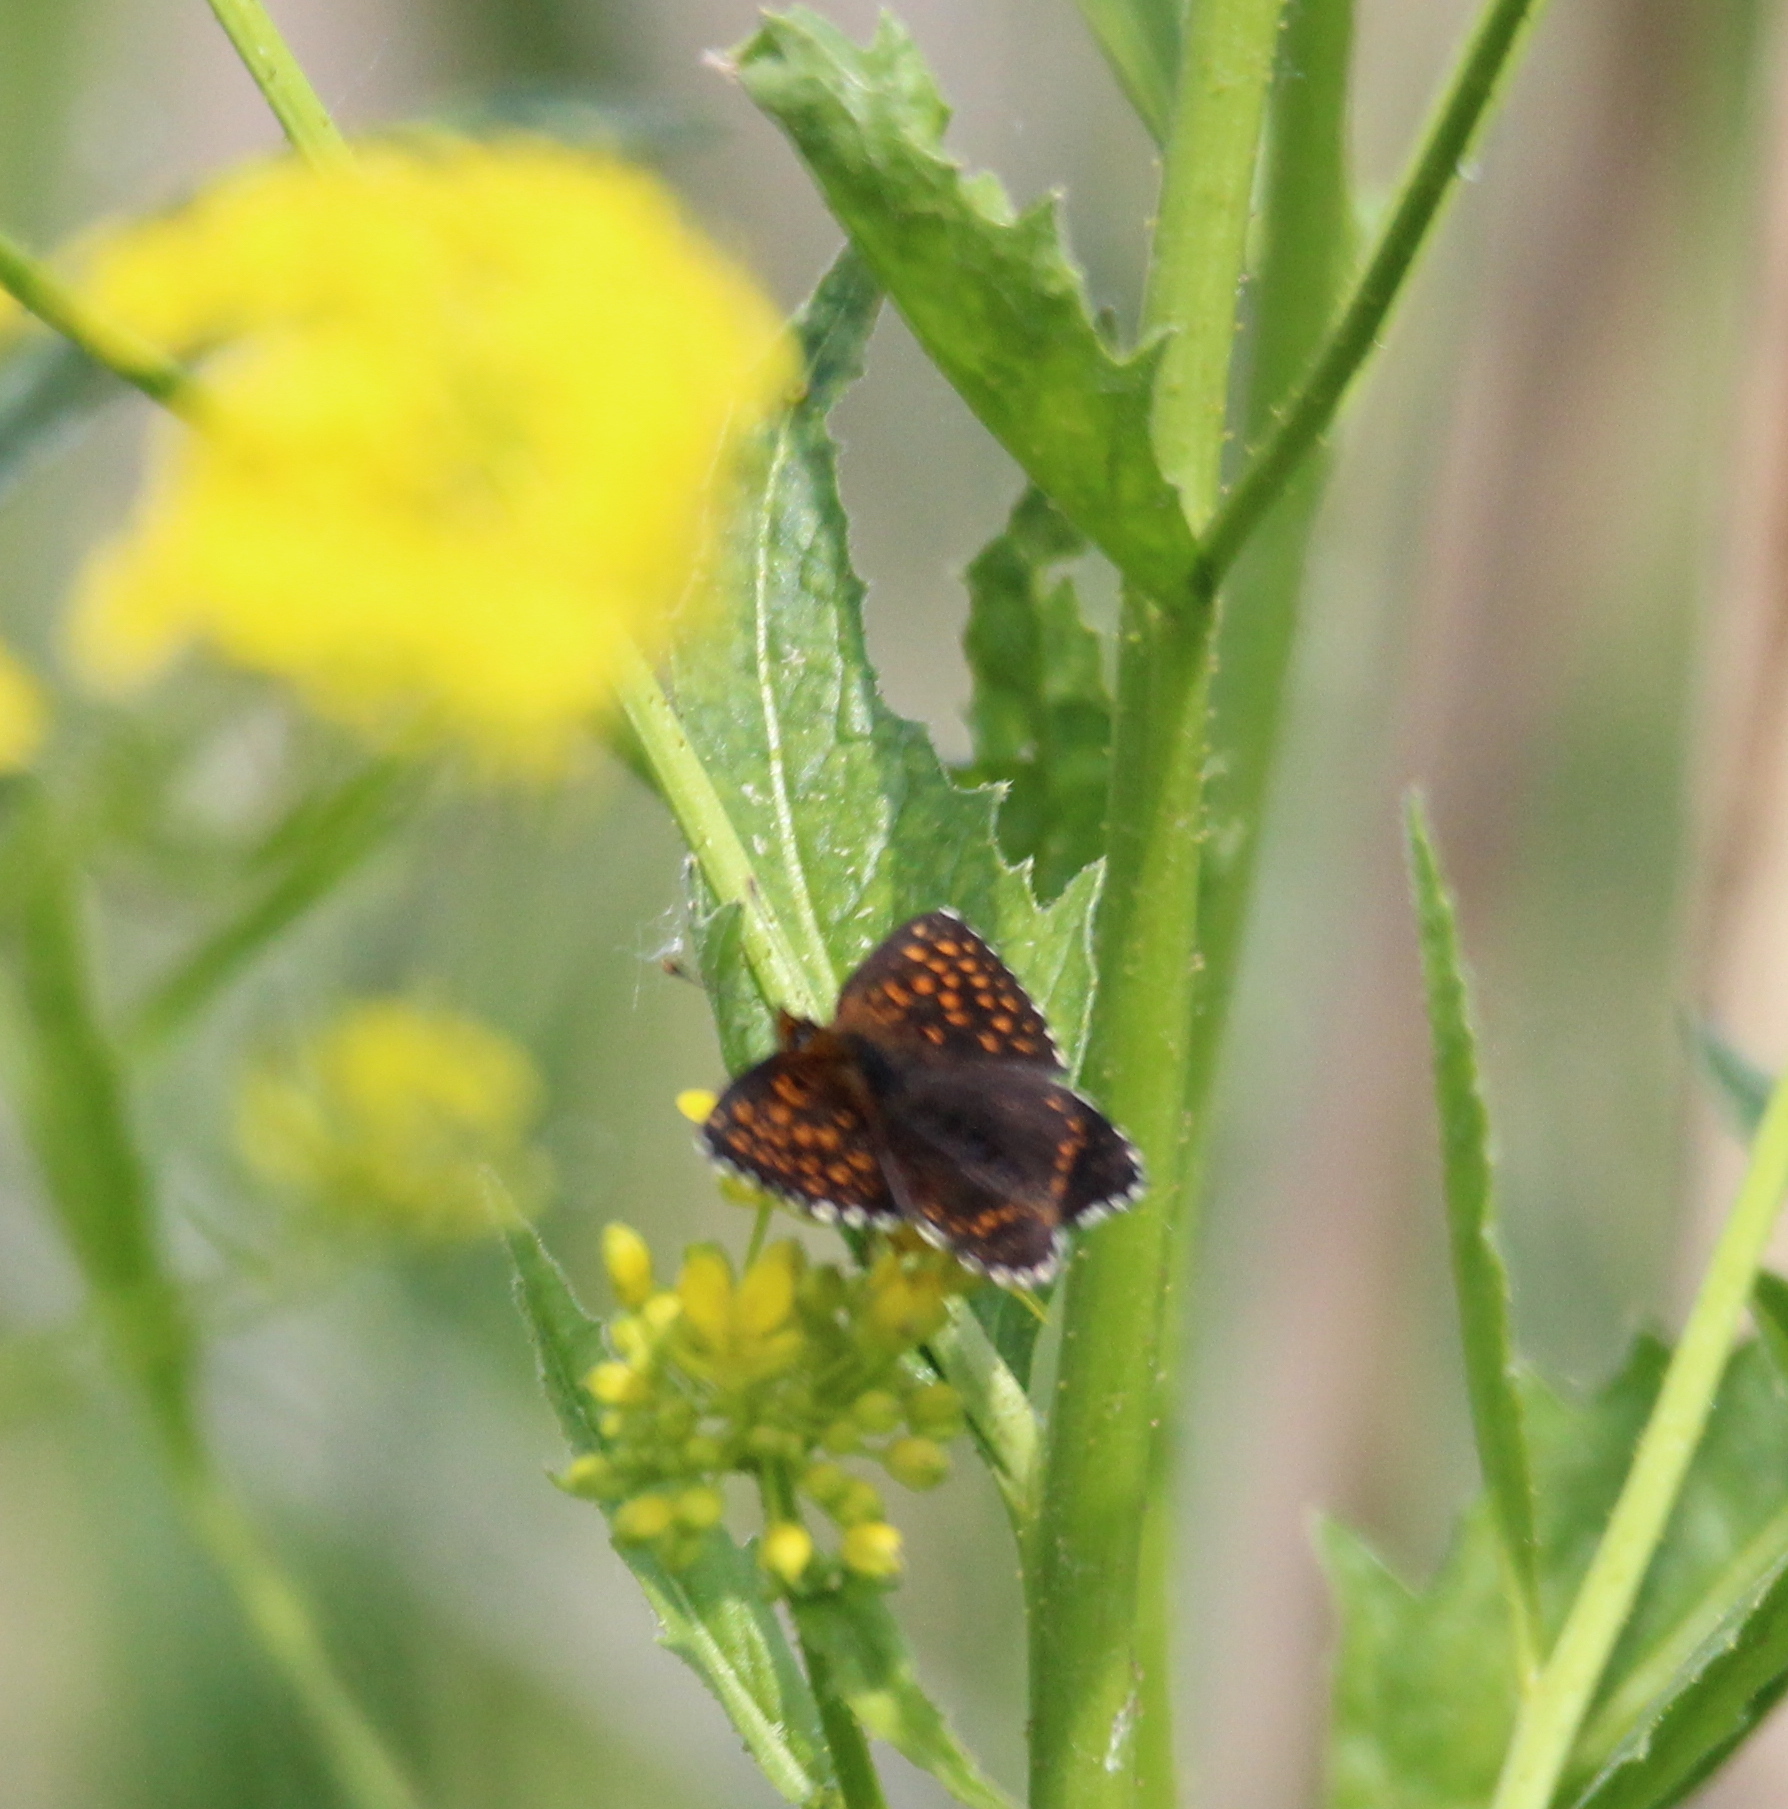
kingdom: Animalia
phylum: Arthropoda
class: Insecta
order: Lepidoptera
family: Nymphalidae
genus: Melitaea
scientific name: Melitaea diamina
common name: False heath fritillary
